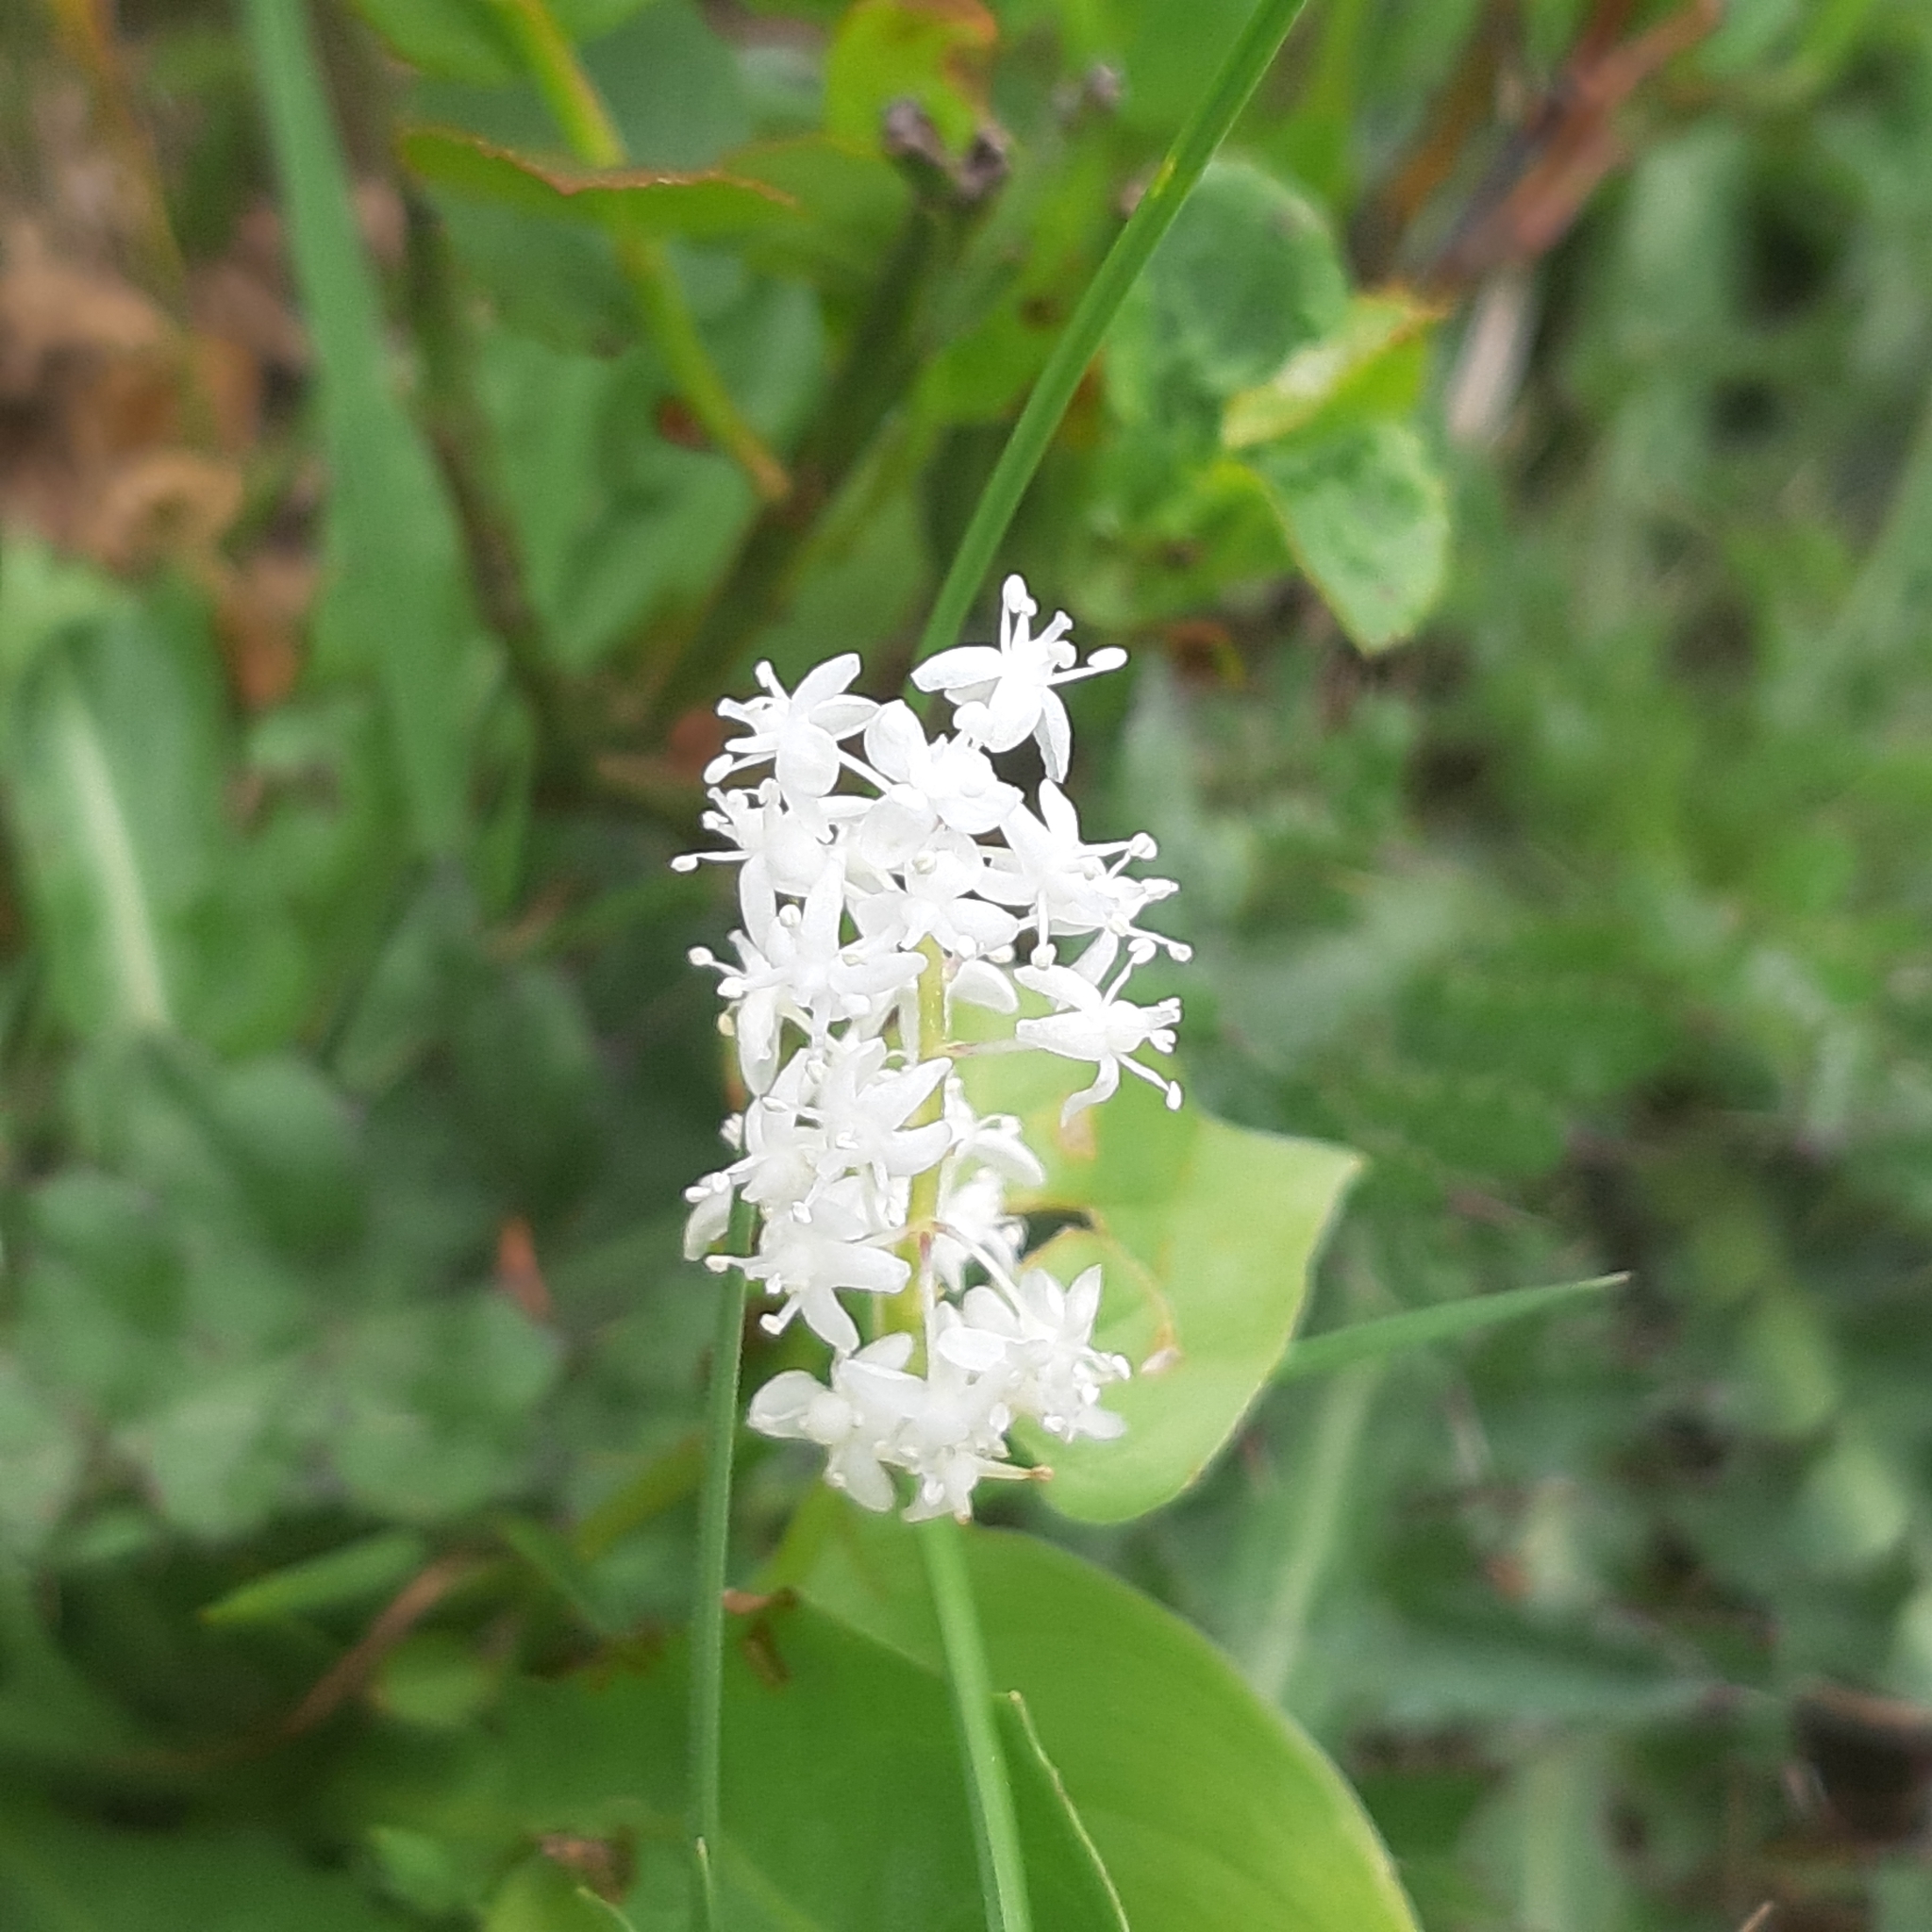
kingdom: Plantae
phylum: Tracheophyta
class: Liliopsida
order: Asparagales
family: Asparagaceae
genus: Maianthemum
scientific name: Maianthemum bifolium
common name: May lily
